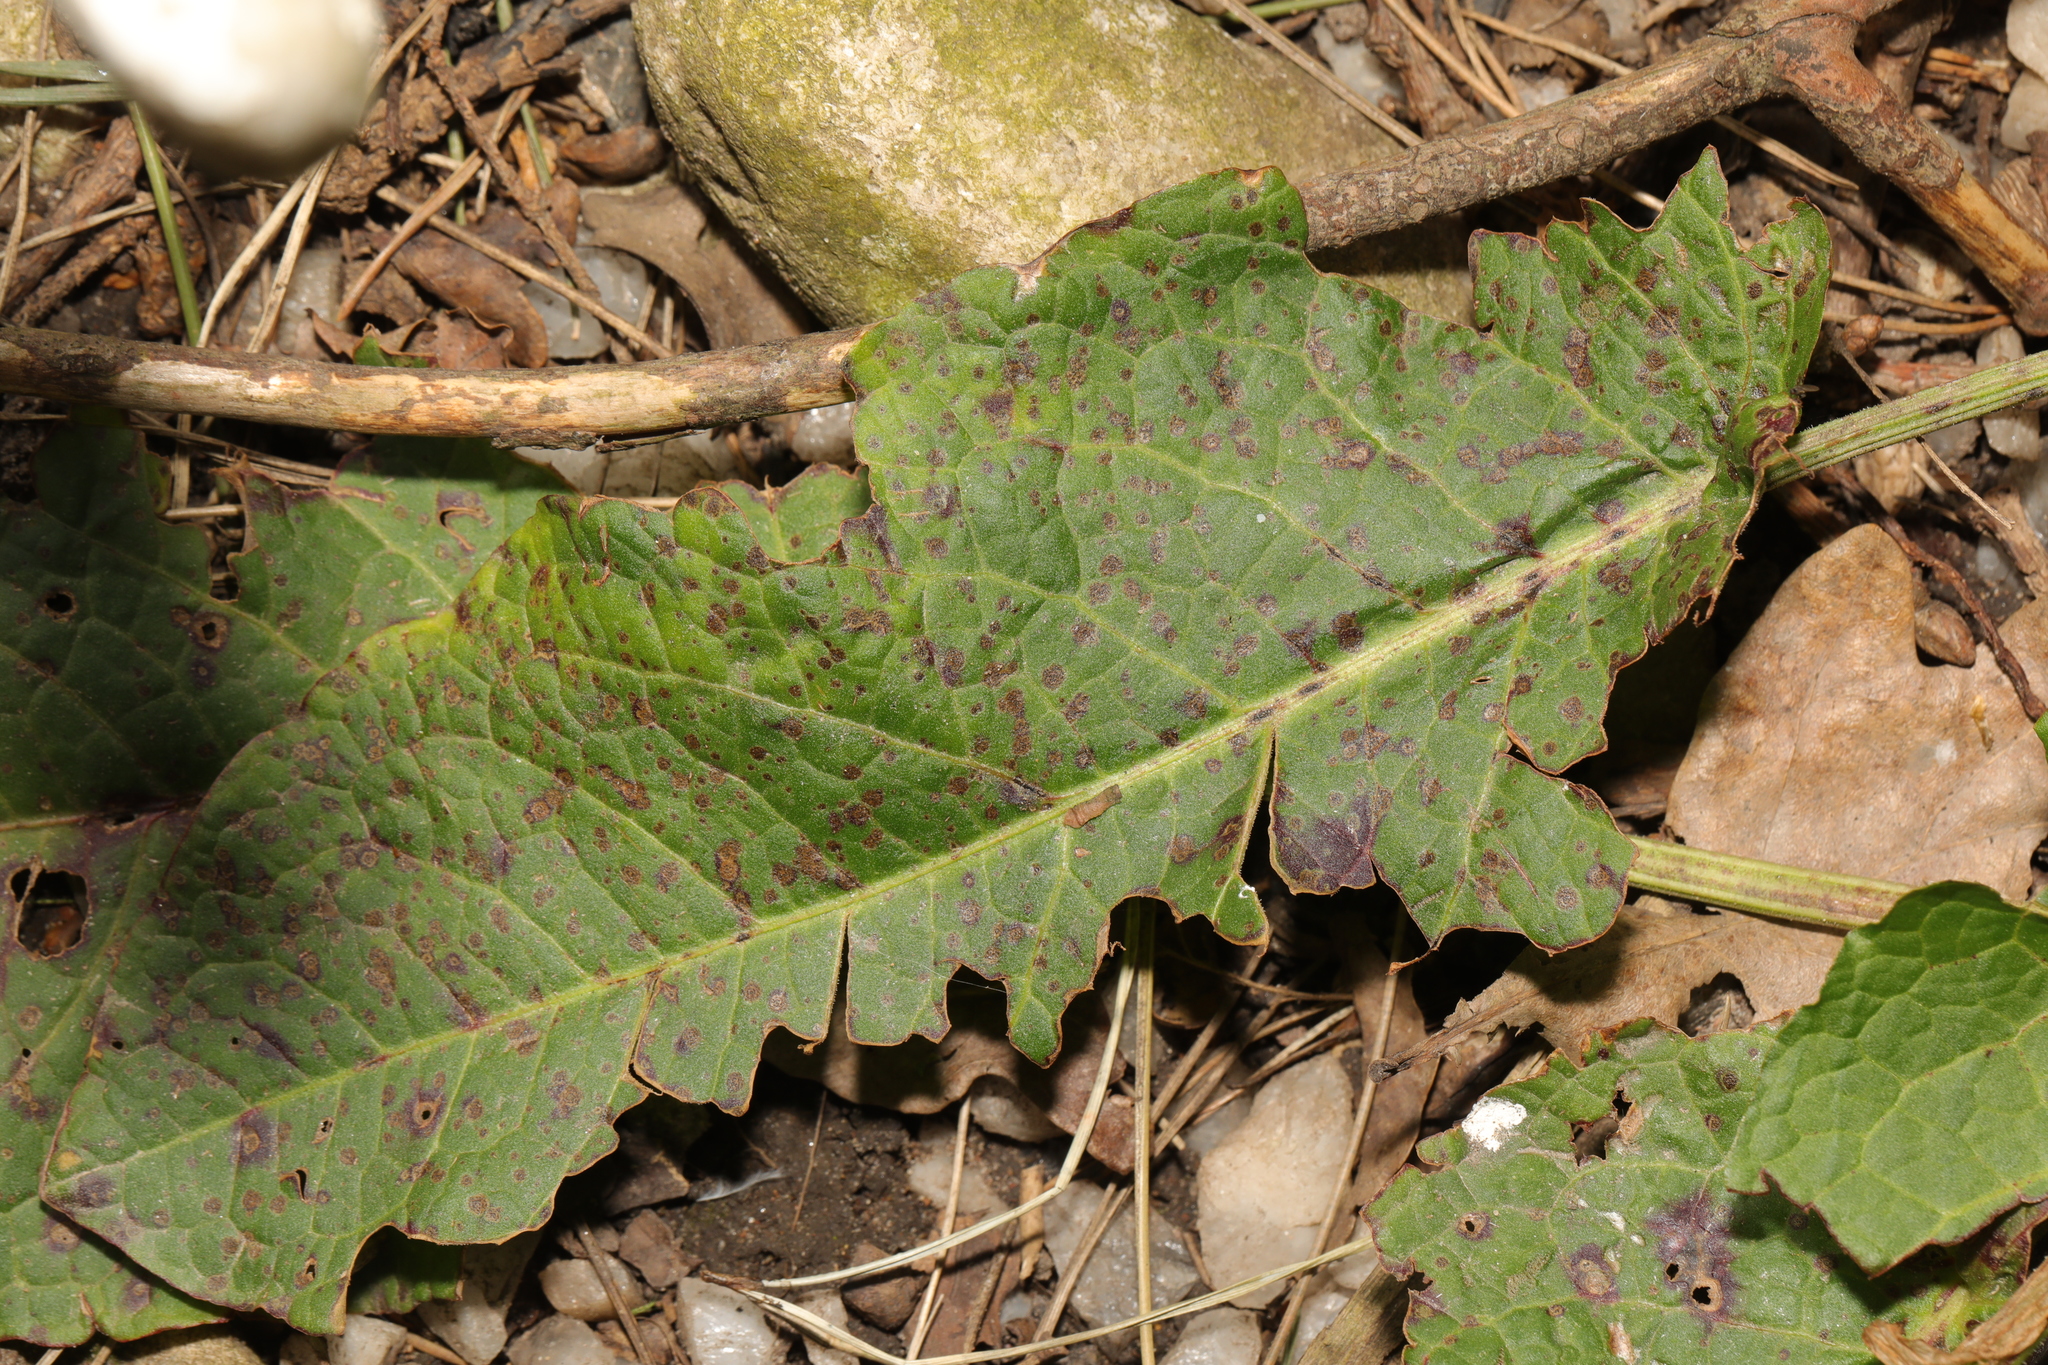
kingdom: Plantae
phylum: Tracheophyta
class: Magnoliopsida
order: Caryophyllales
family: Polygonaceae
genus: Rumex
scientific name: Rumex obtusifolius
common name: Bitter dock
